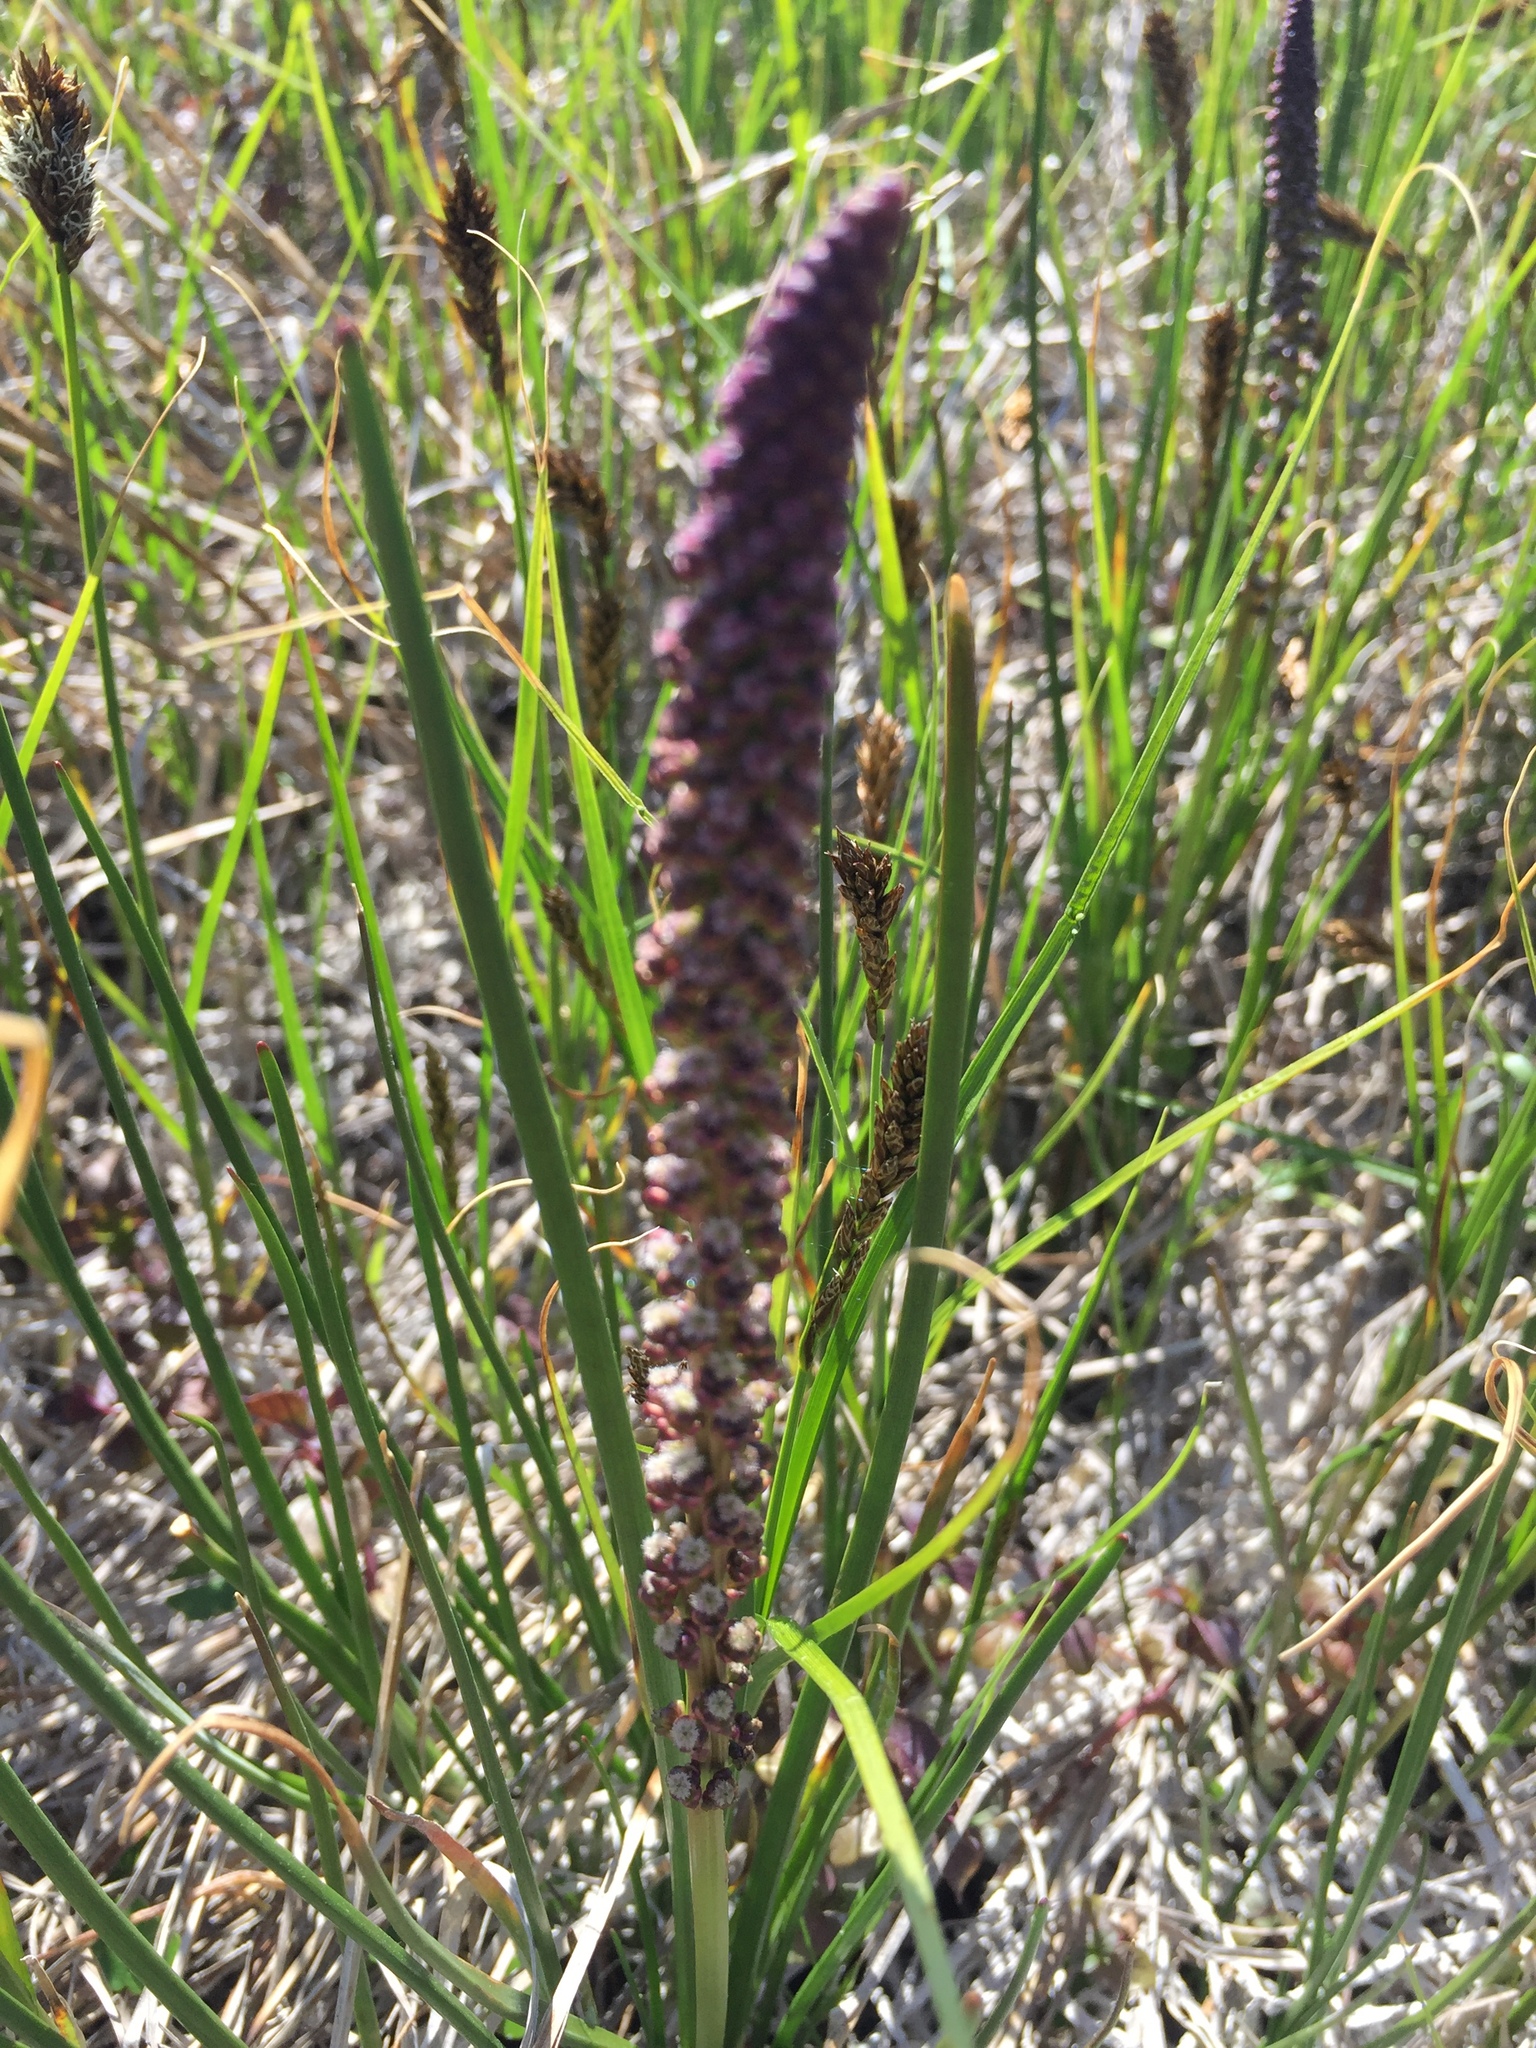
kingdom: Plantae
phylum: Tracheophyta
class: Liliopsida
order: Alismatales
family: Juncaginaceae
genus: Triglochin
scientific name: Triglochin maritima
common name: Sea arrowgrass
